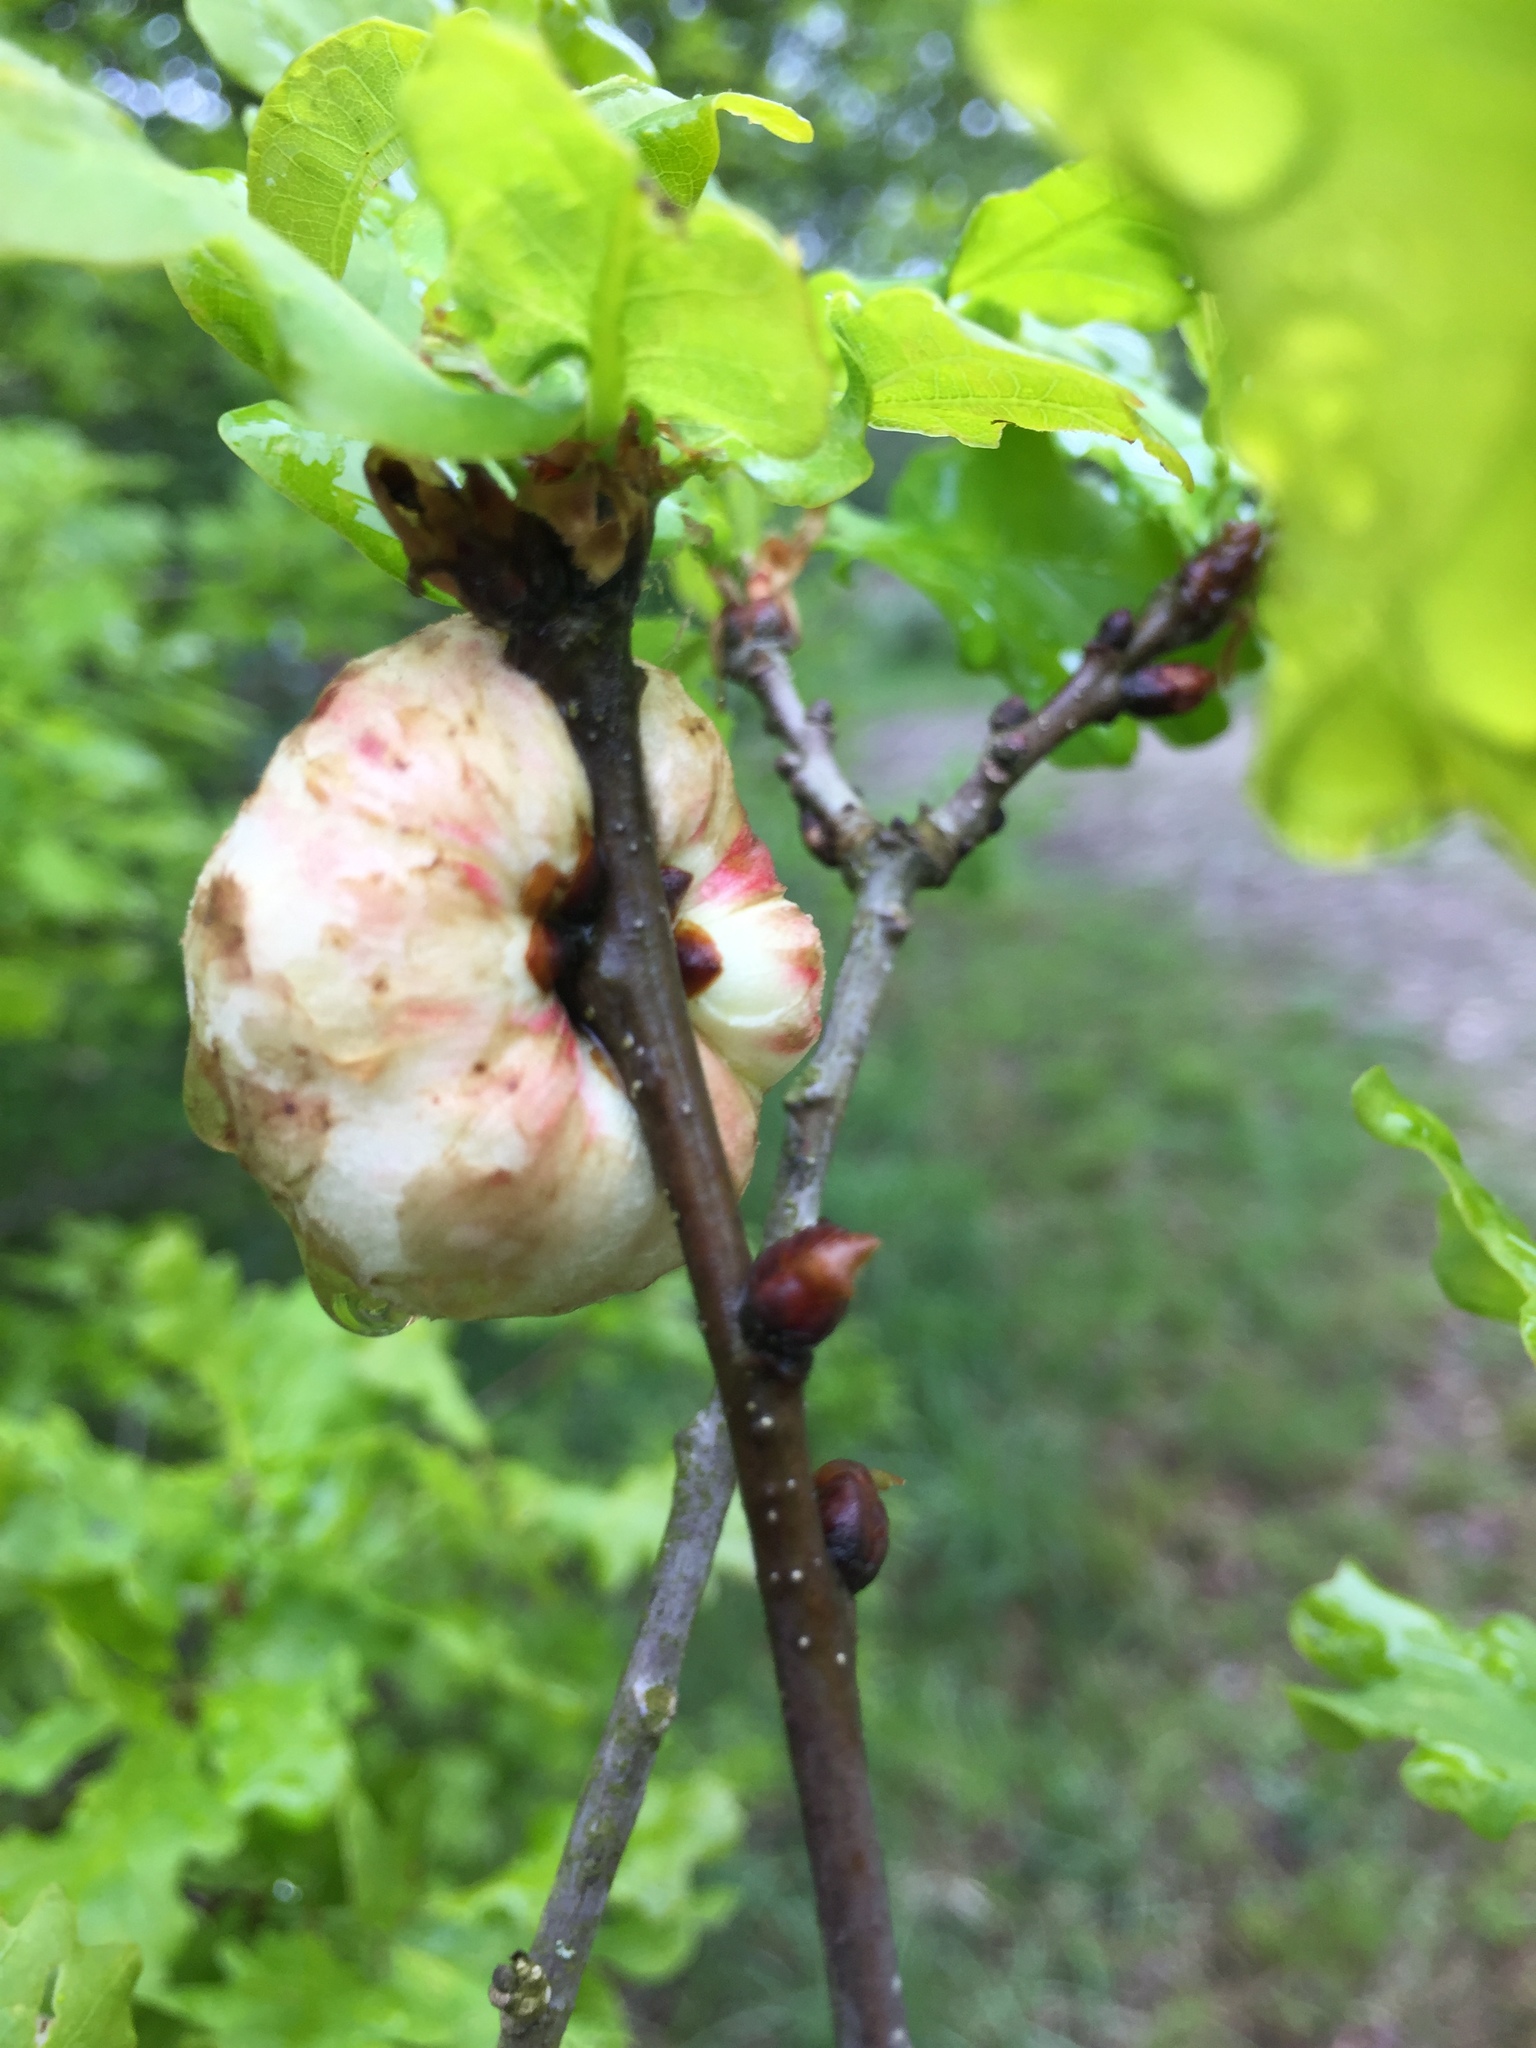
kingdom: Animalia
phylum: Arthropoda
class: Insecta
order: Hymenoptera
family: Cynipidae
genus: Biorhiza
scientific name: Biorhiza pallida
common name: Oak apple
